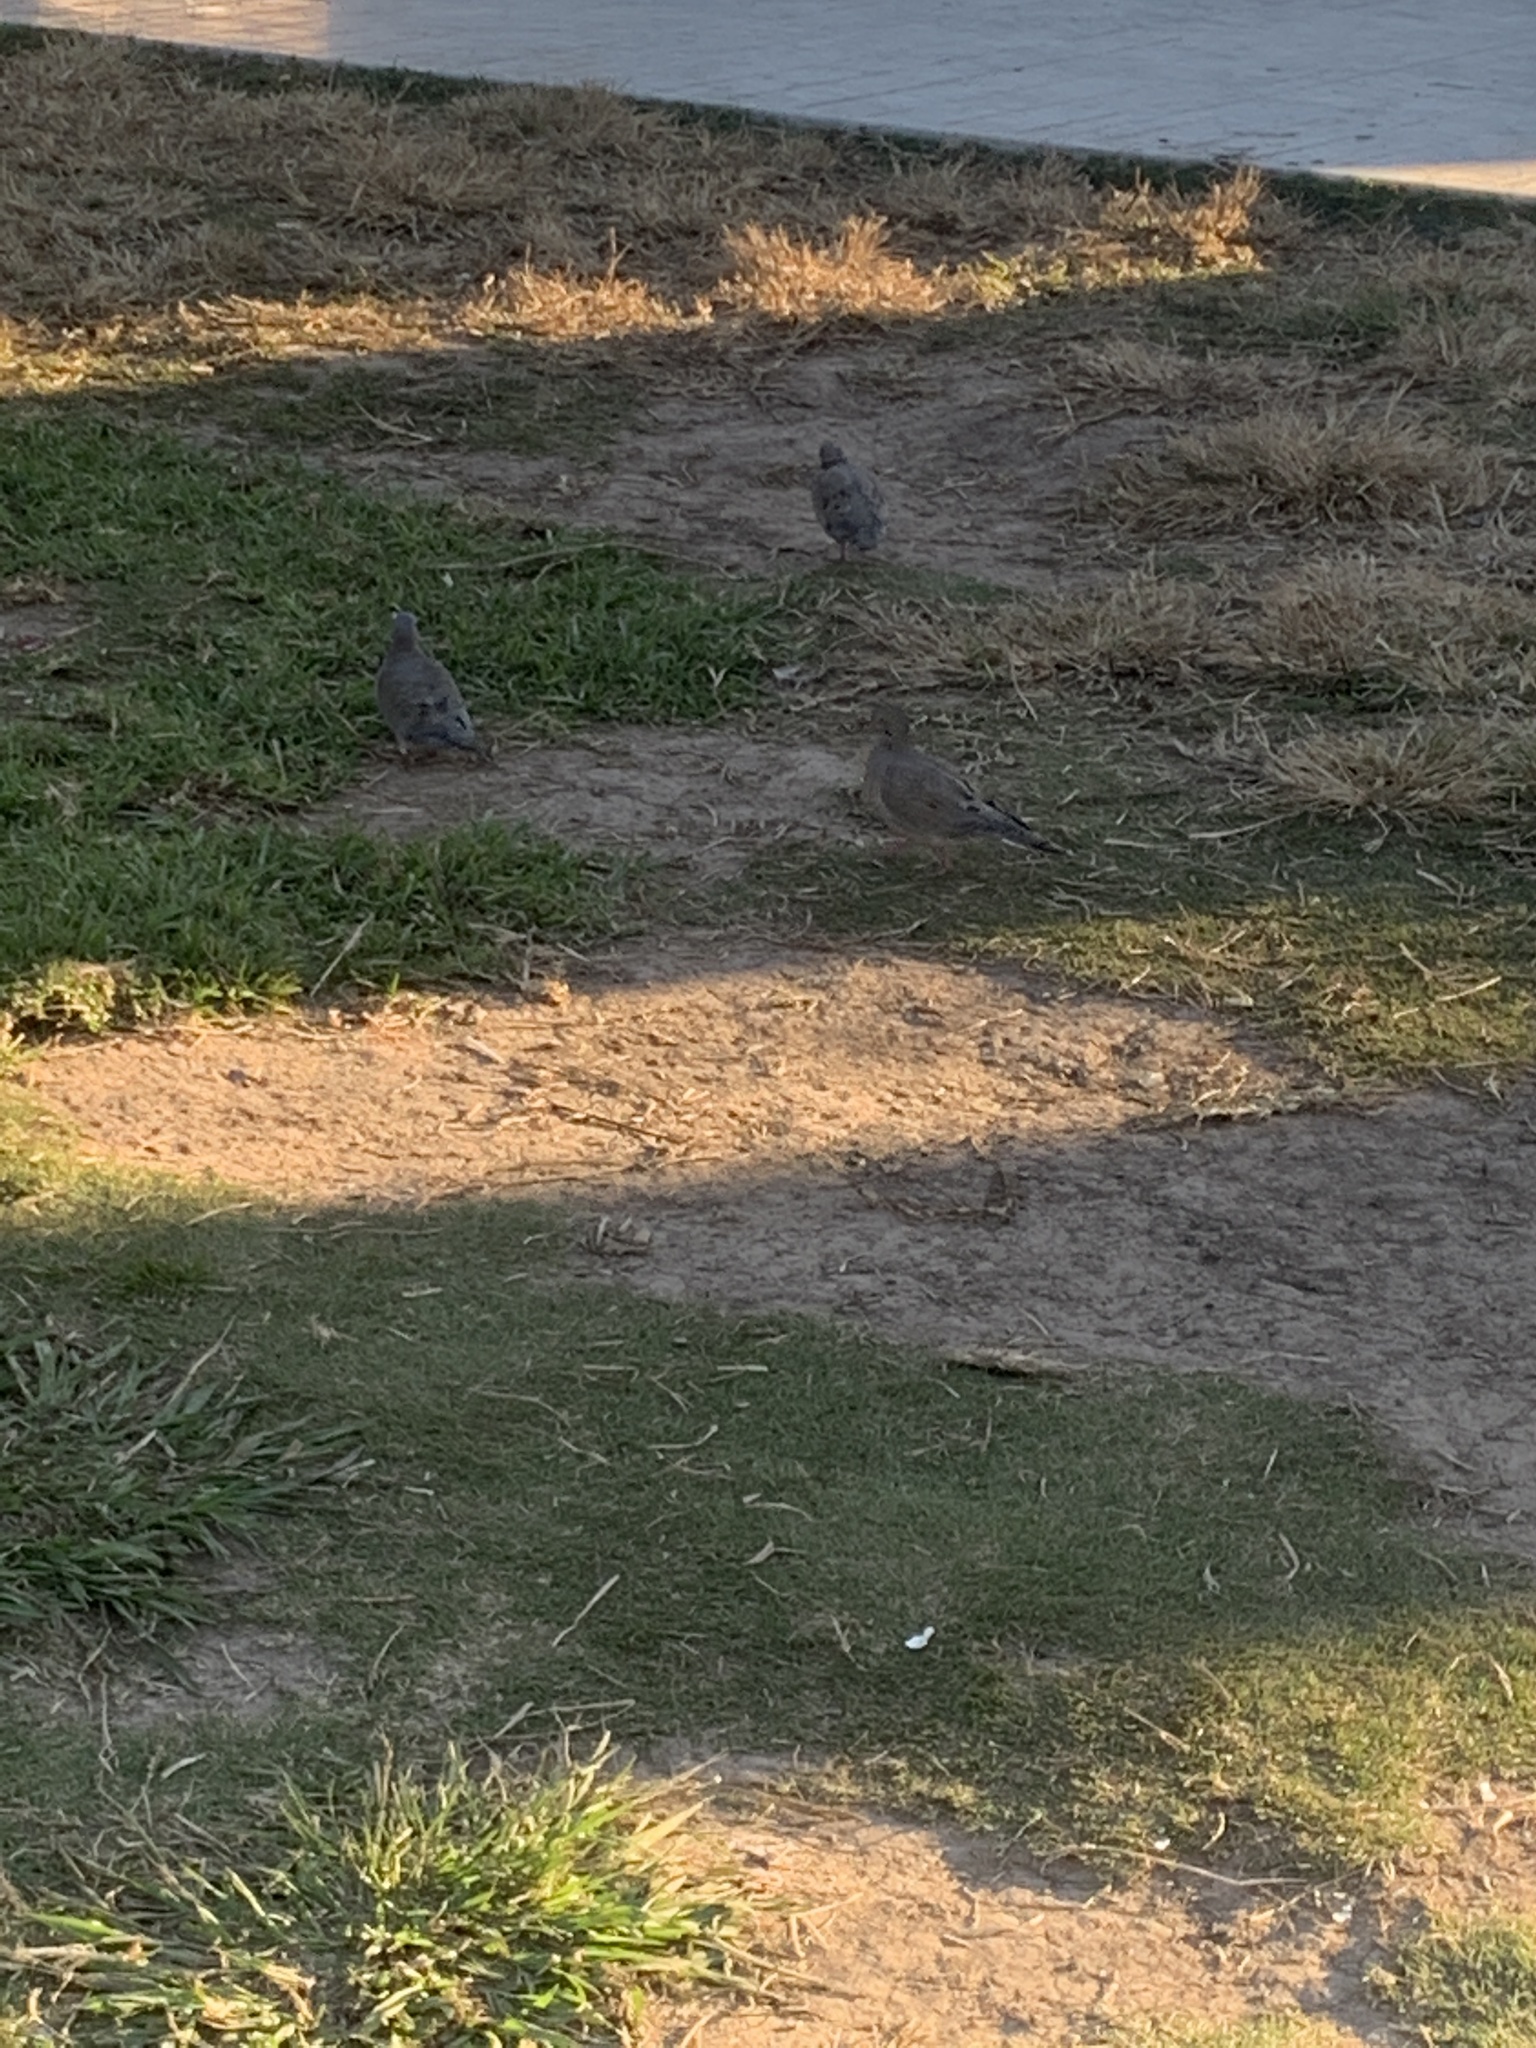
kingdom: Animalia
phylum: Chordata
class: Aves
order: Columbiformes
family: Columbidae
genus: Zenaida
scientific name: Zenaida auriculata
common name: Eared dove
